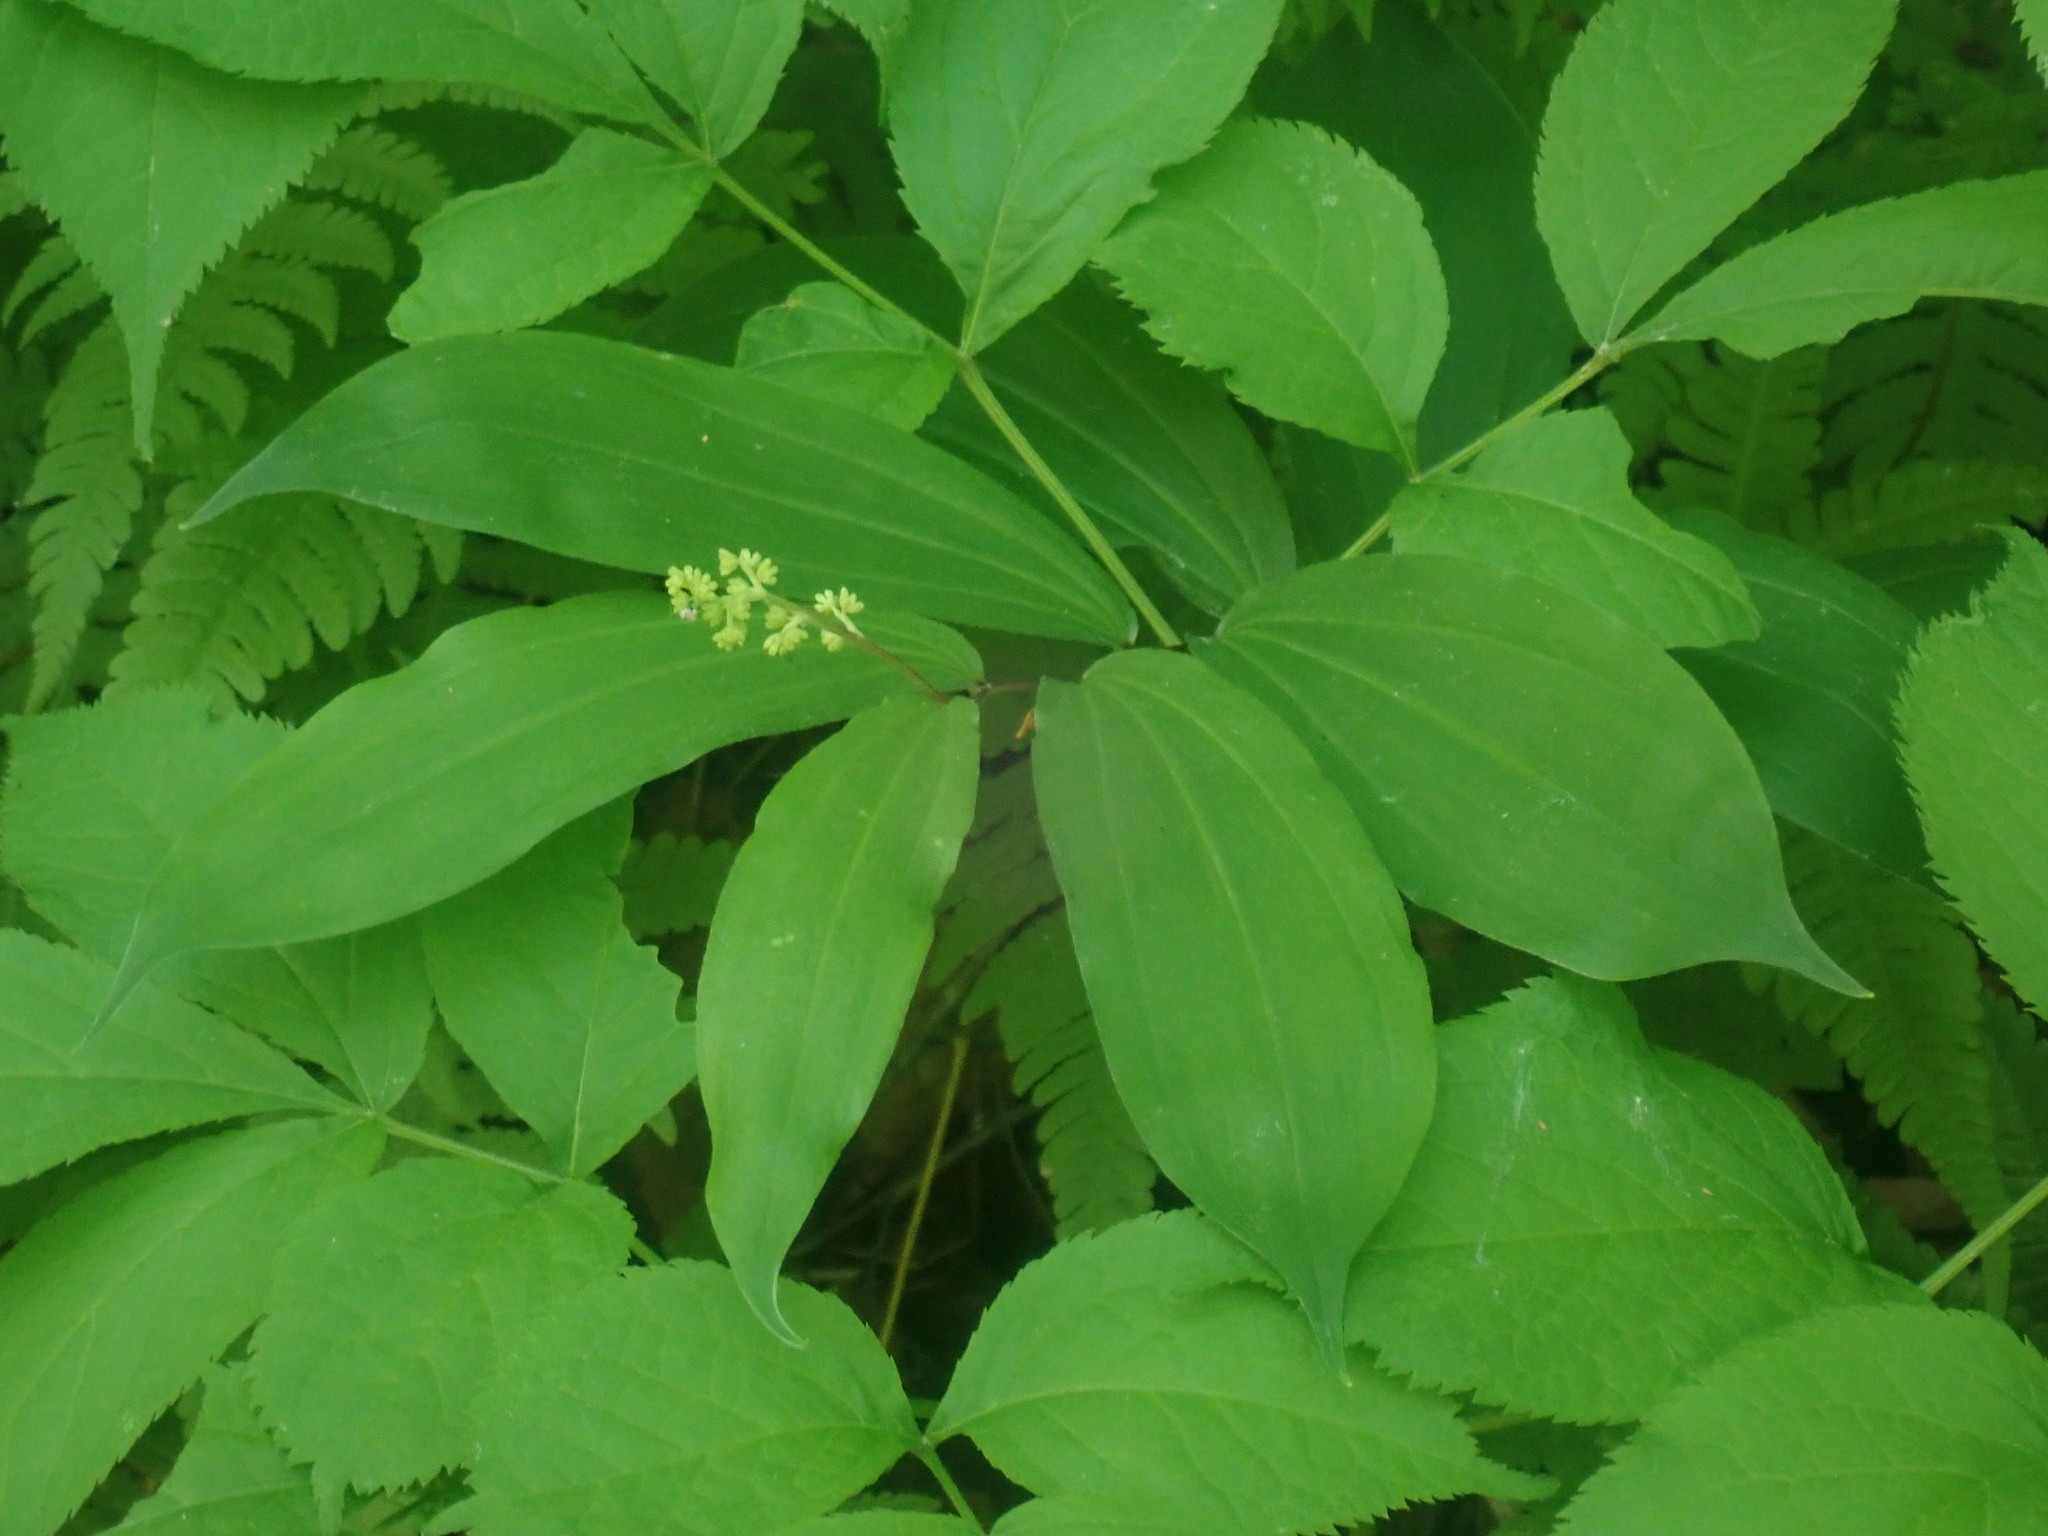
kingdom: Plantae
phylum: Tracheophyta
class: Liliopsida
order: Asparagales
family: Asparagaceae
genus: Maianthemum
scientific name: Maianthemum racemosum
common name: False spikenard
